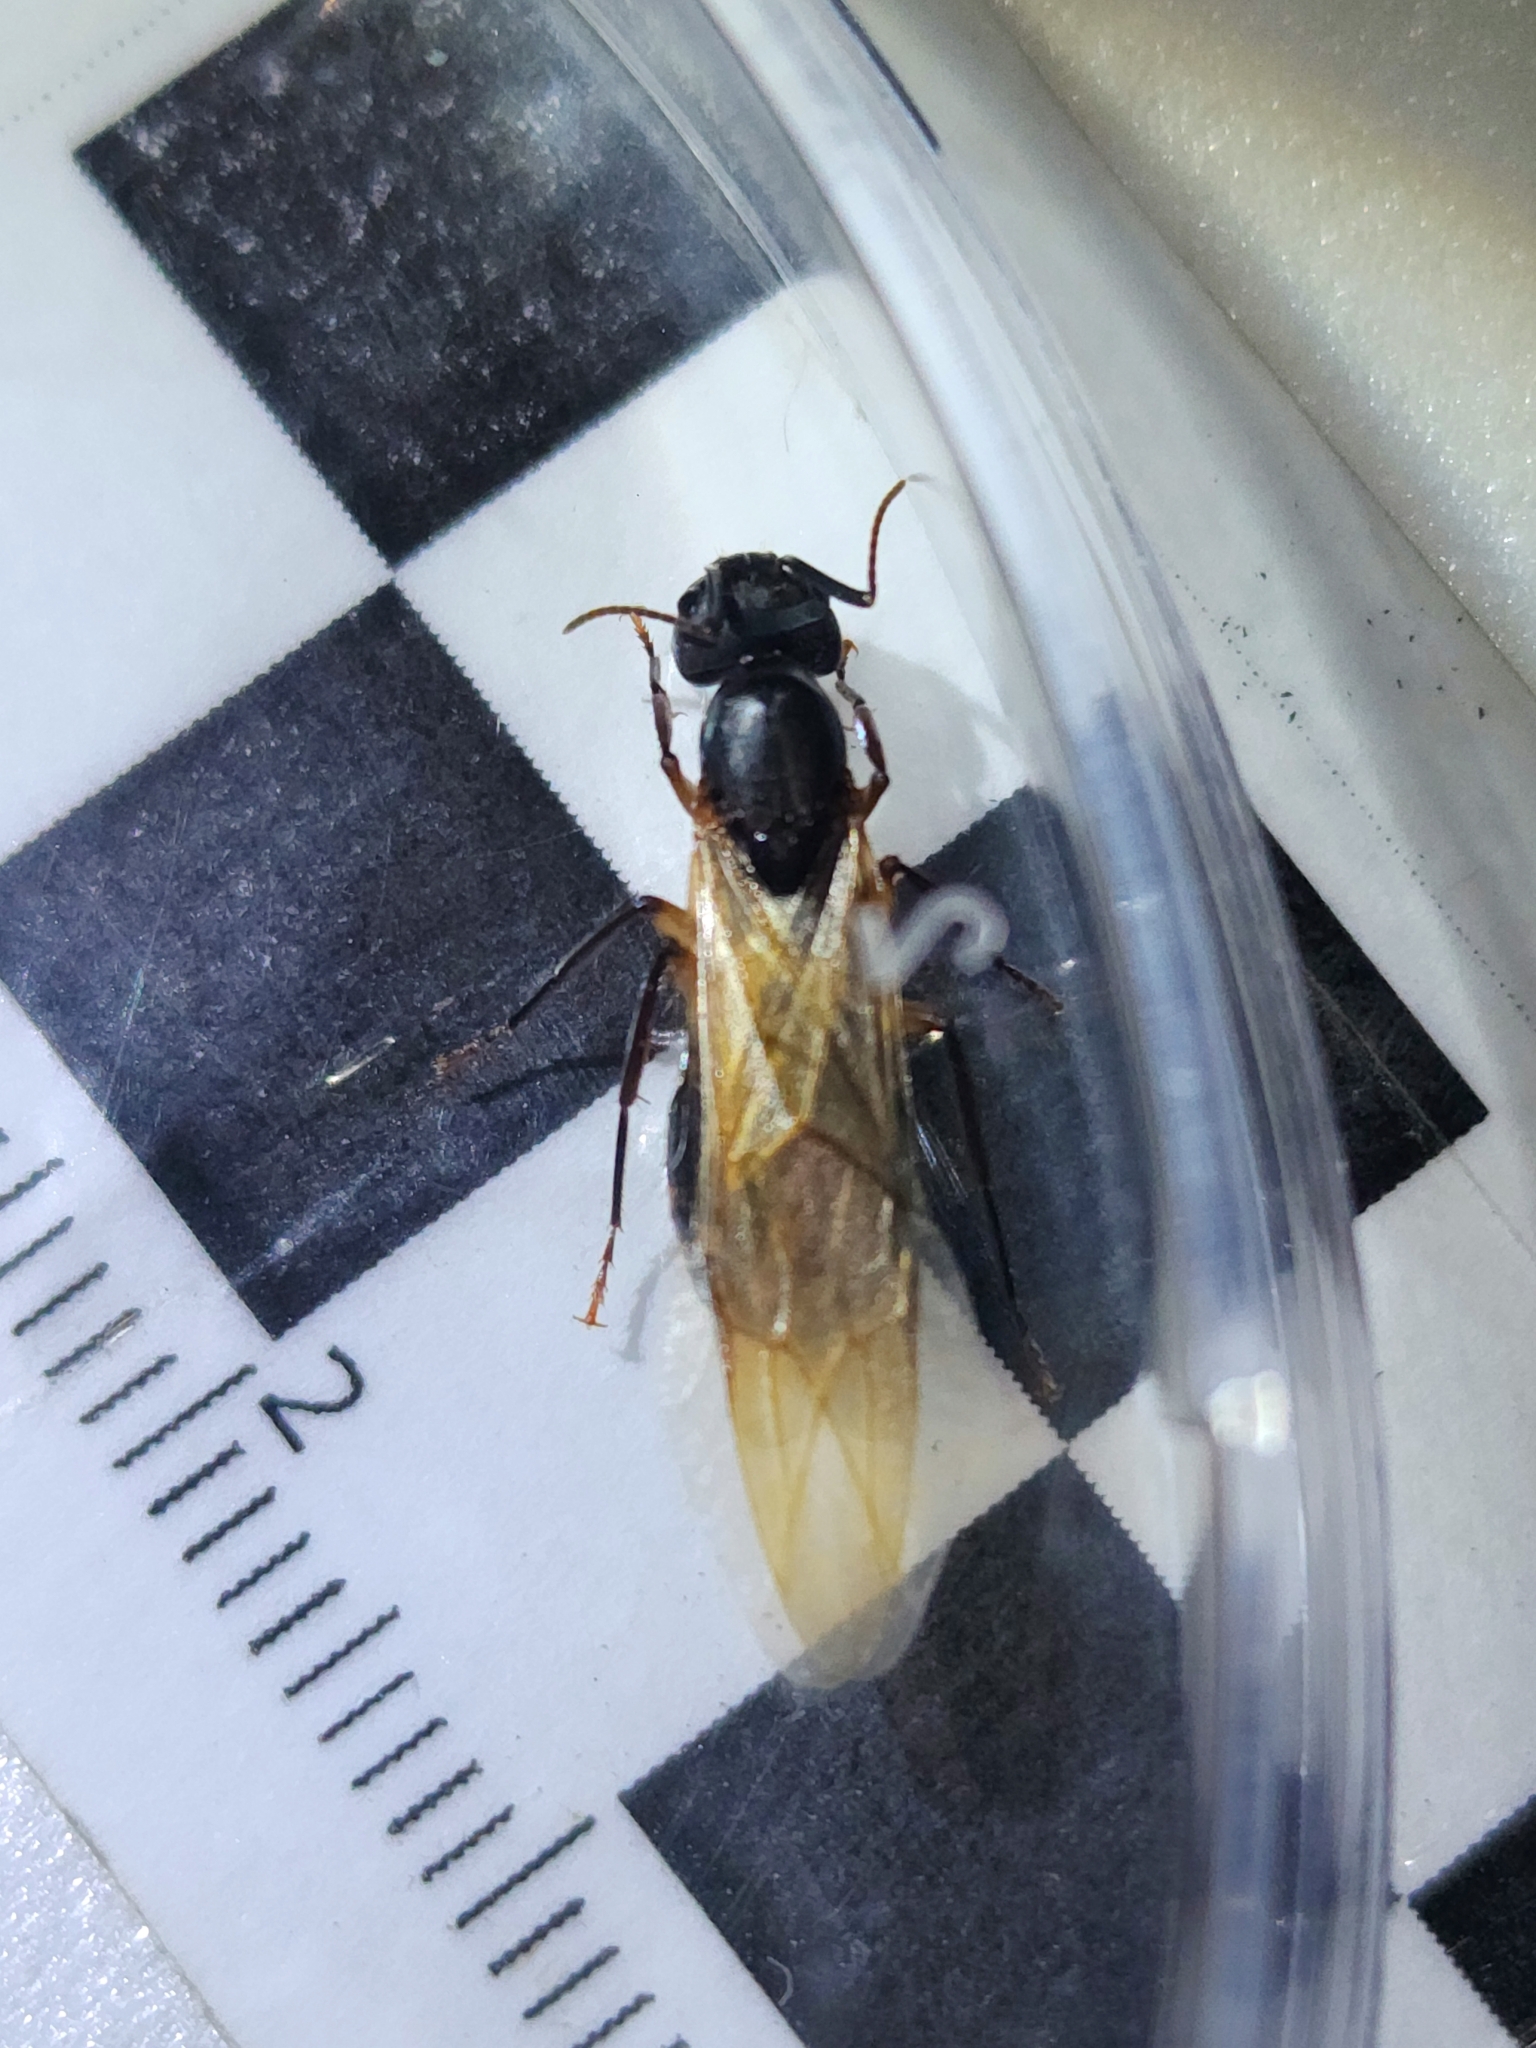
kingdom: Animalia
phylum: Arthropoda
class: Insecta
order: Hymenoptera
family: Formicidae
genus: Camponotus
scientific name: Camponotus renggeri
